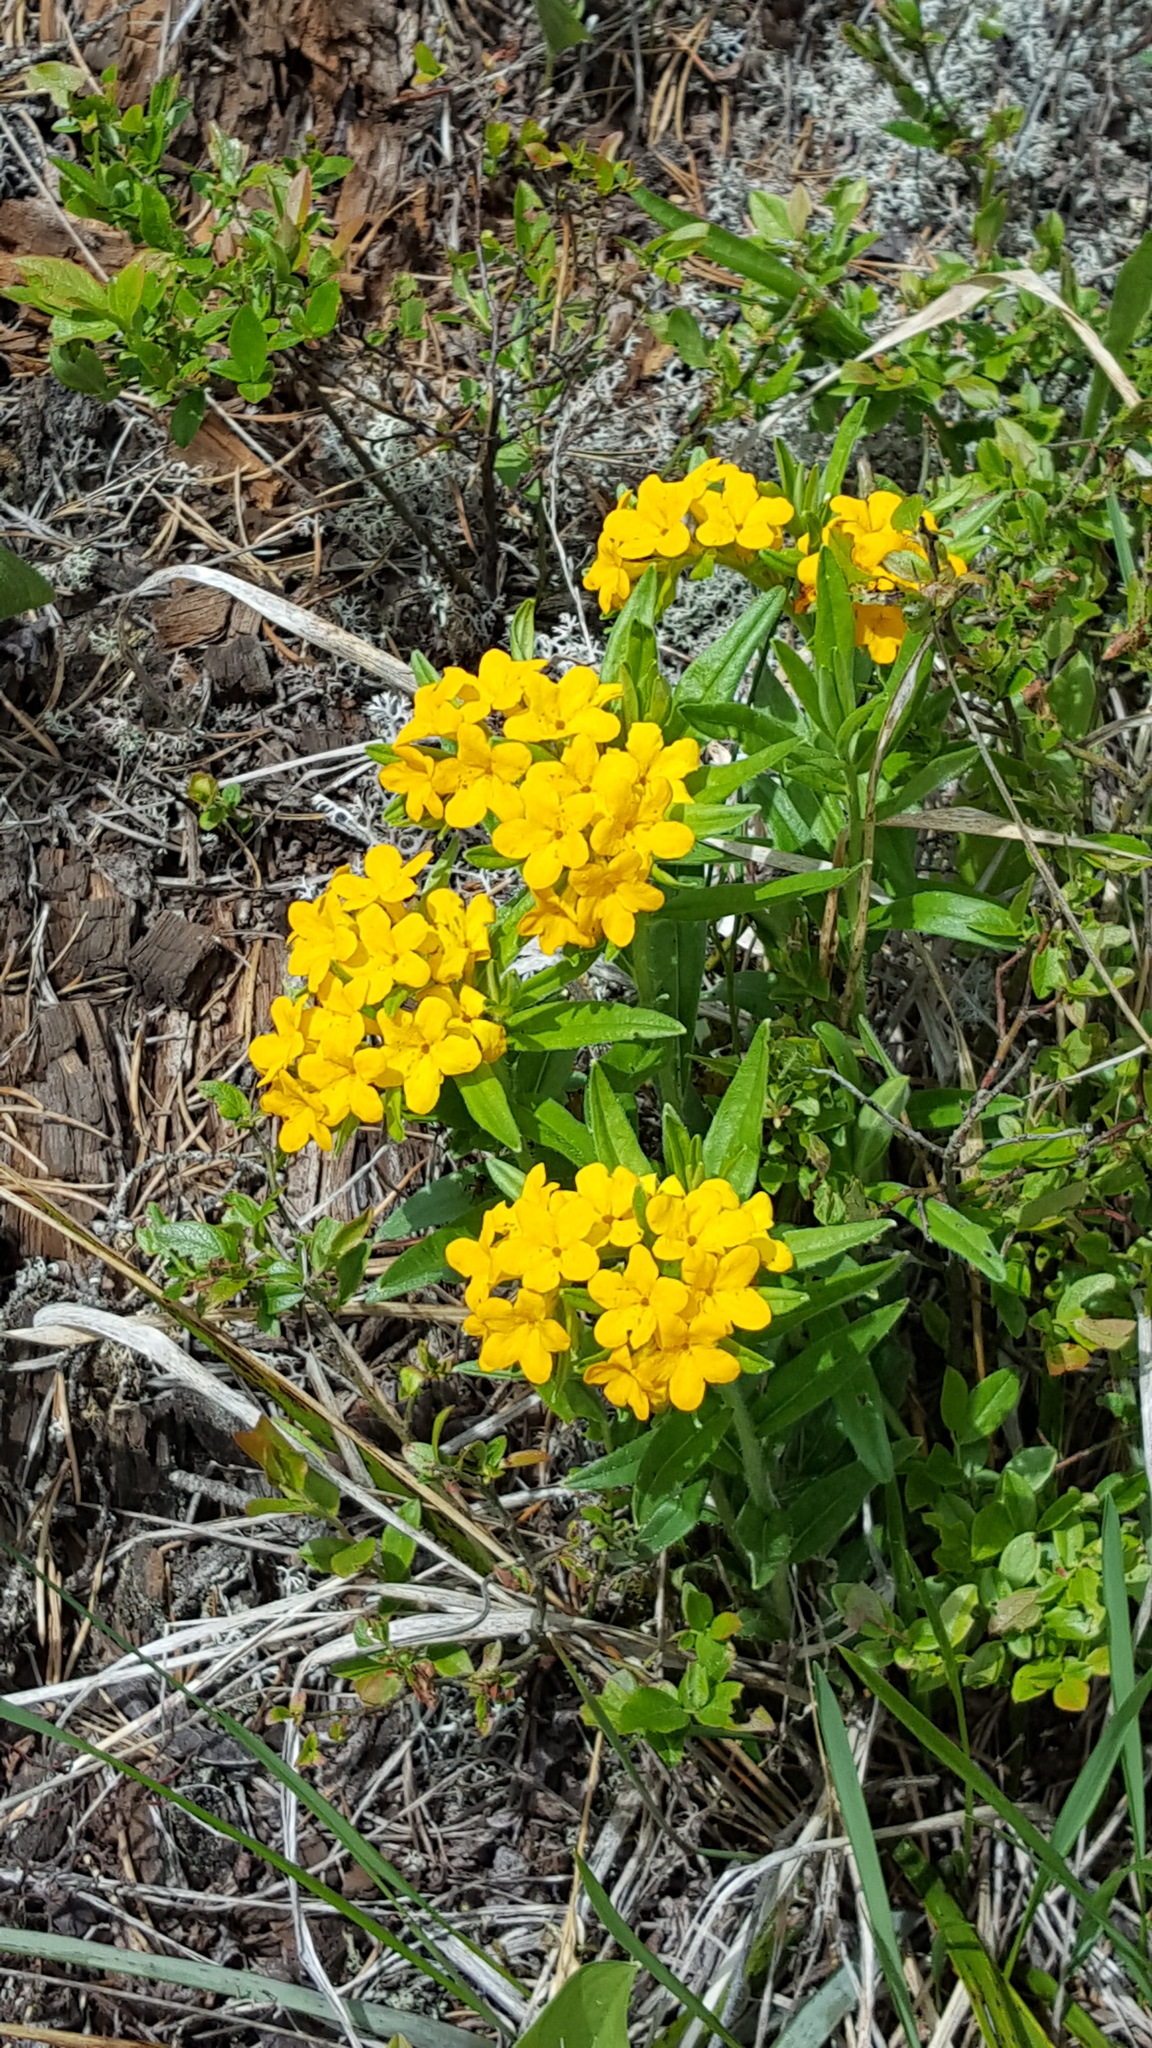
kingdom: Plantae
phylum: Tracheophyta
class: Magnoliopsida
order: Boraginales
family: Boraginaceae
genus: Lithospermum
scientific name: Lithospermum canescens
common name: Hoary puccoon
